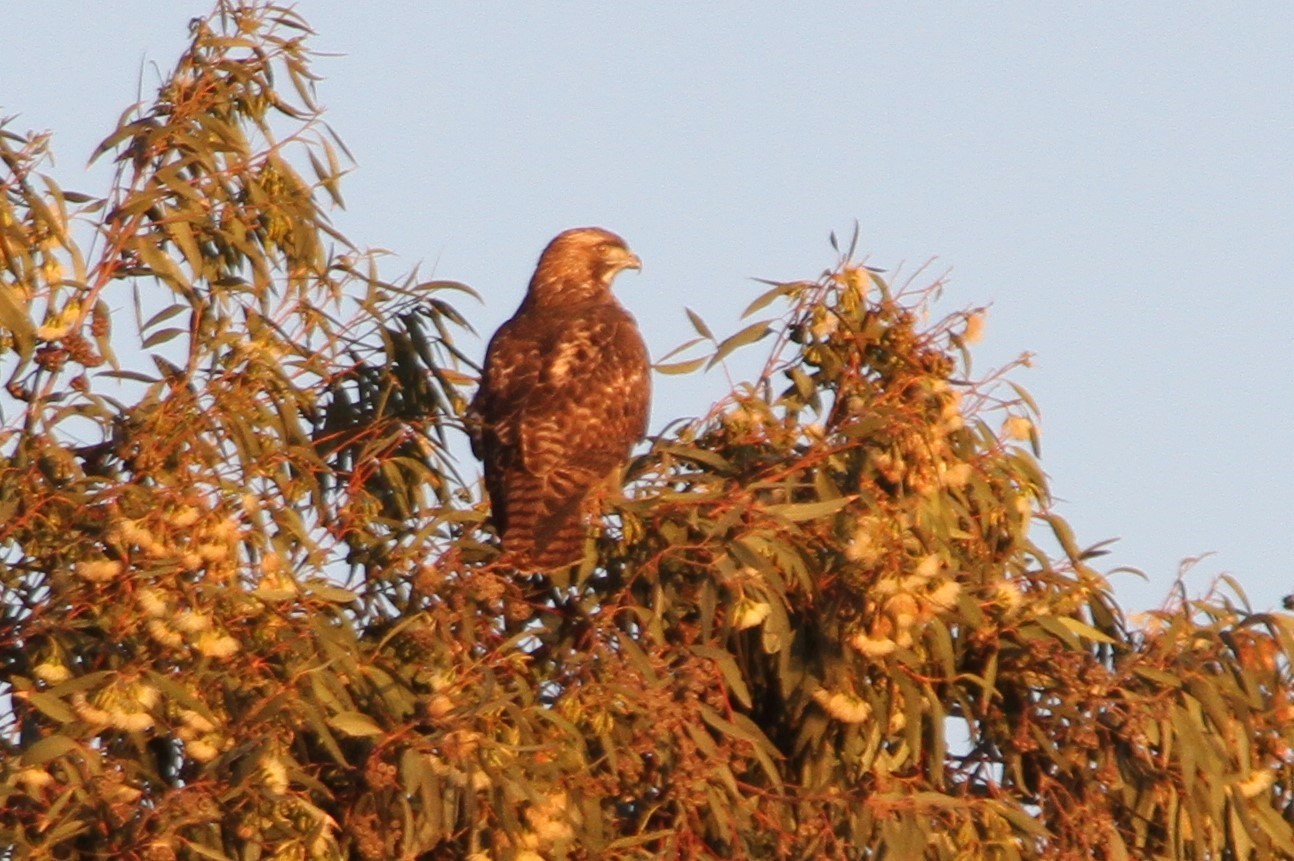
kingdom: Animalia
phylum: Chordata
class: Aves
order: Accipitriformes
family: Accipitridae
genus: Buteo
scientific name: Buteo jamaicensis
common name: Red-tailed hawk
